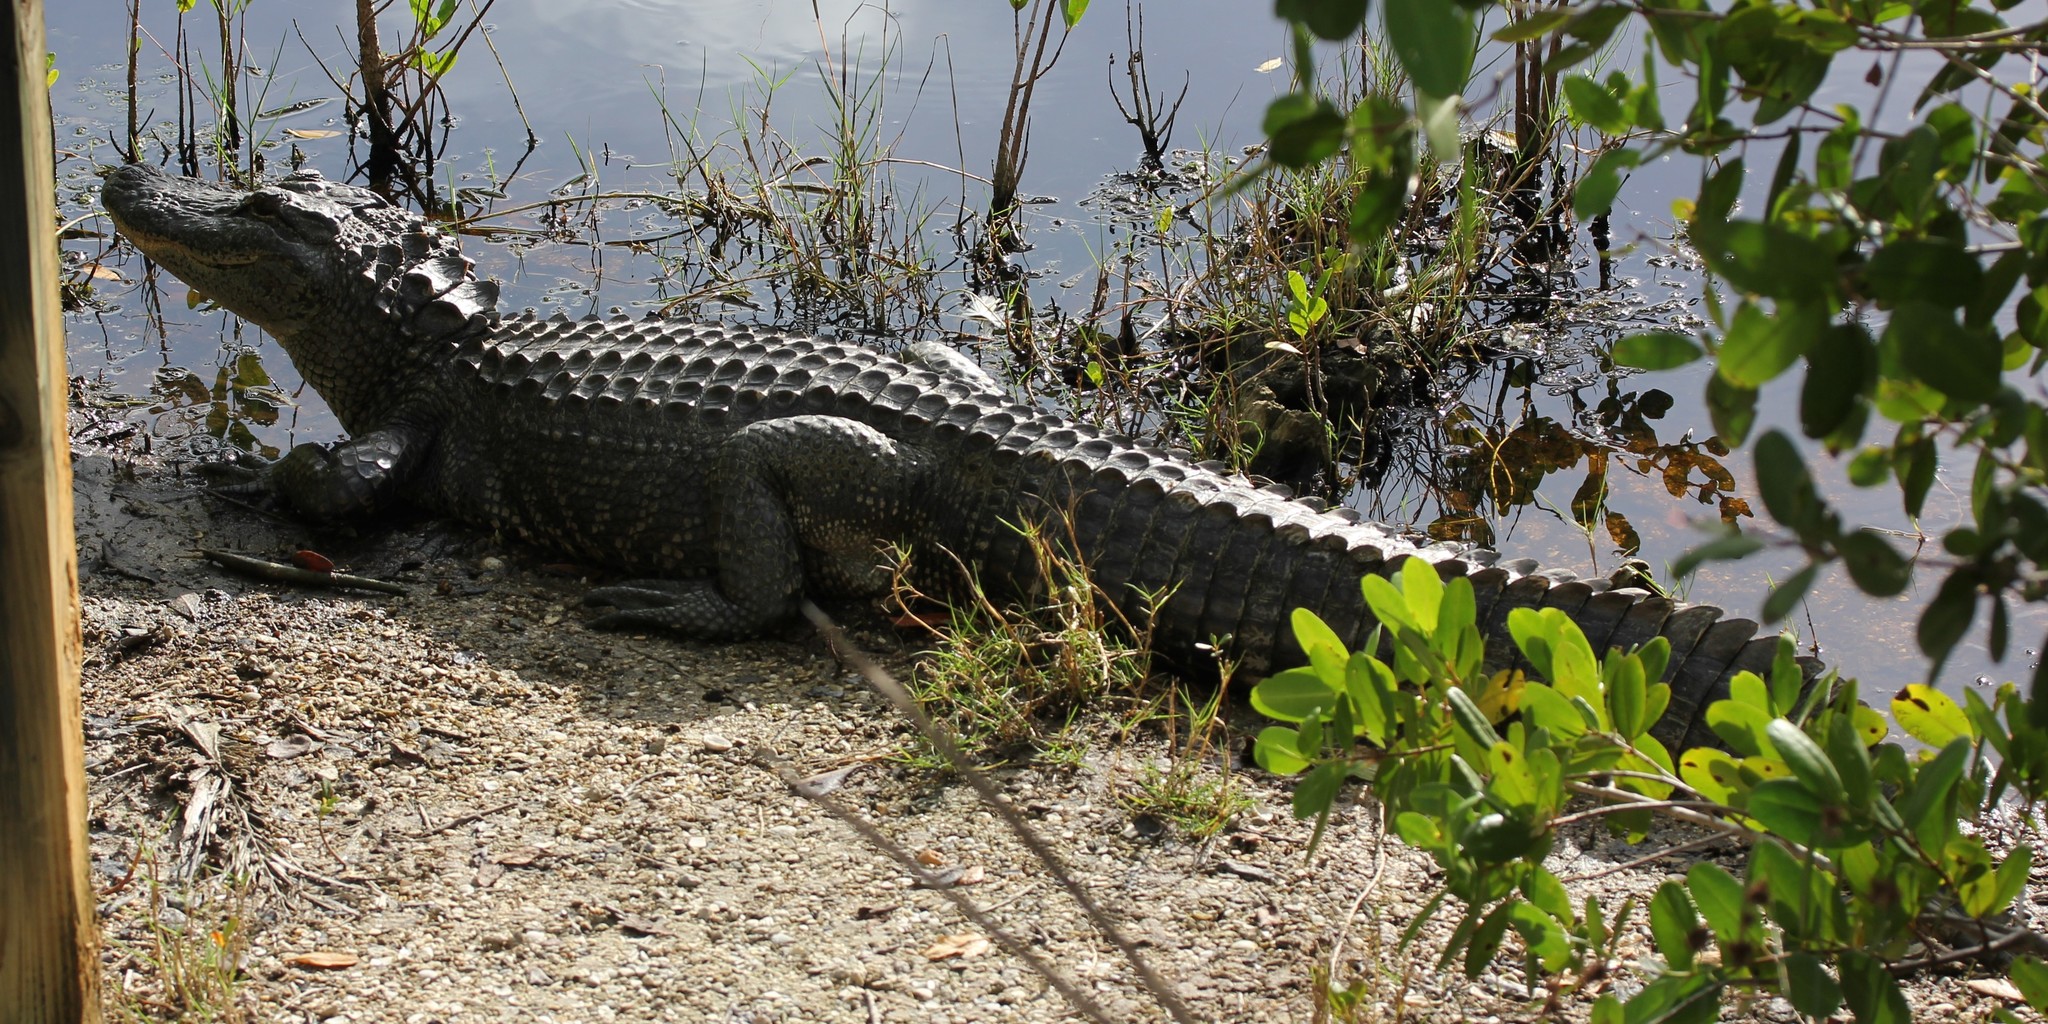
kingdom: Animalia
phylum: Chordata
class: Crocodylia
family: Alligatoridae
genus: Alligator
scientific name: Alligator mississippiensis
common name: American alligator
